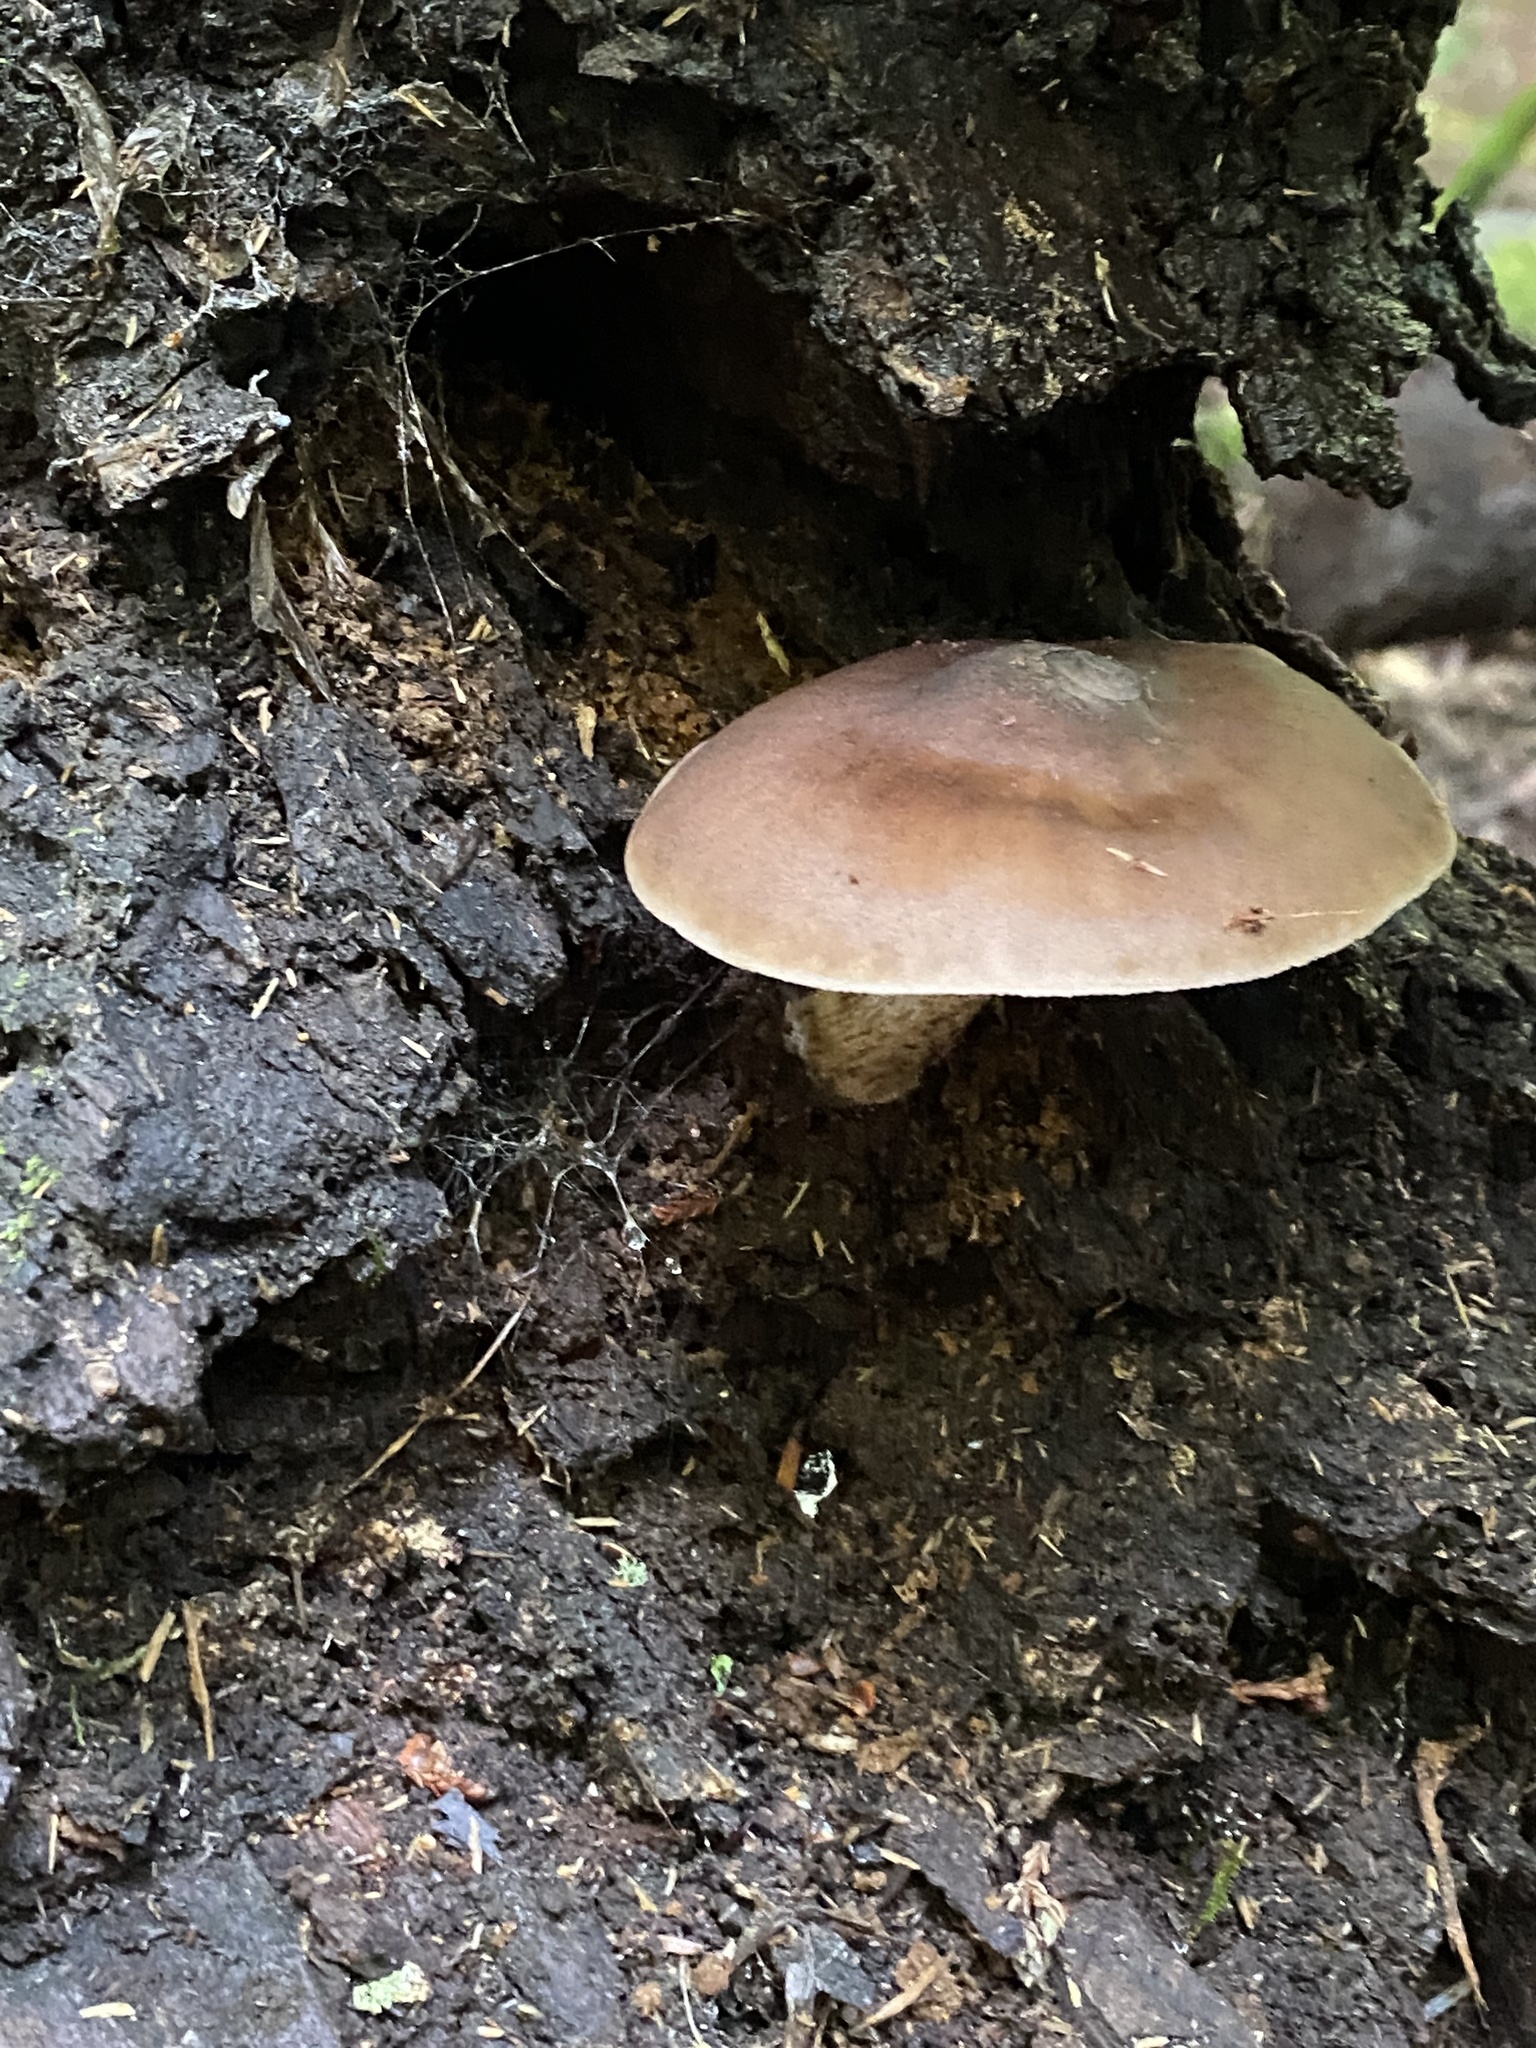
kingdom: Fungi
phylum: Basidiomycota
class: Agaricomycetes
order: Agaricales
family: Pluteaceae
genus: Pluteus
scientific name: Pluteus cervinus
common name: Deer shield
